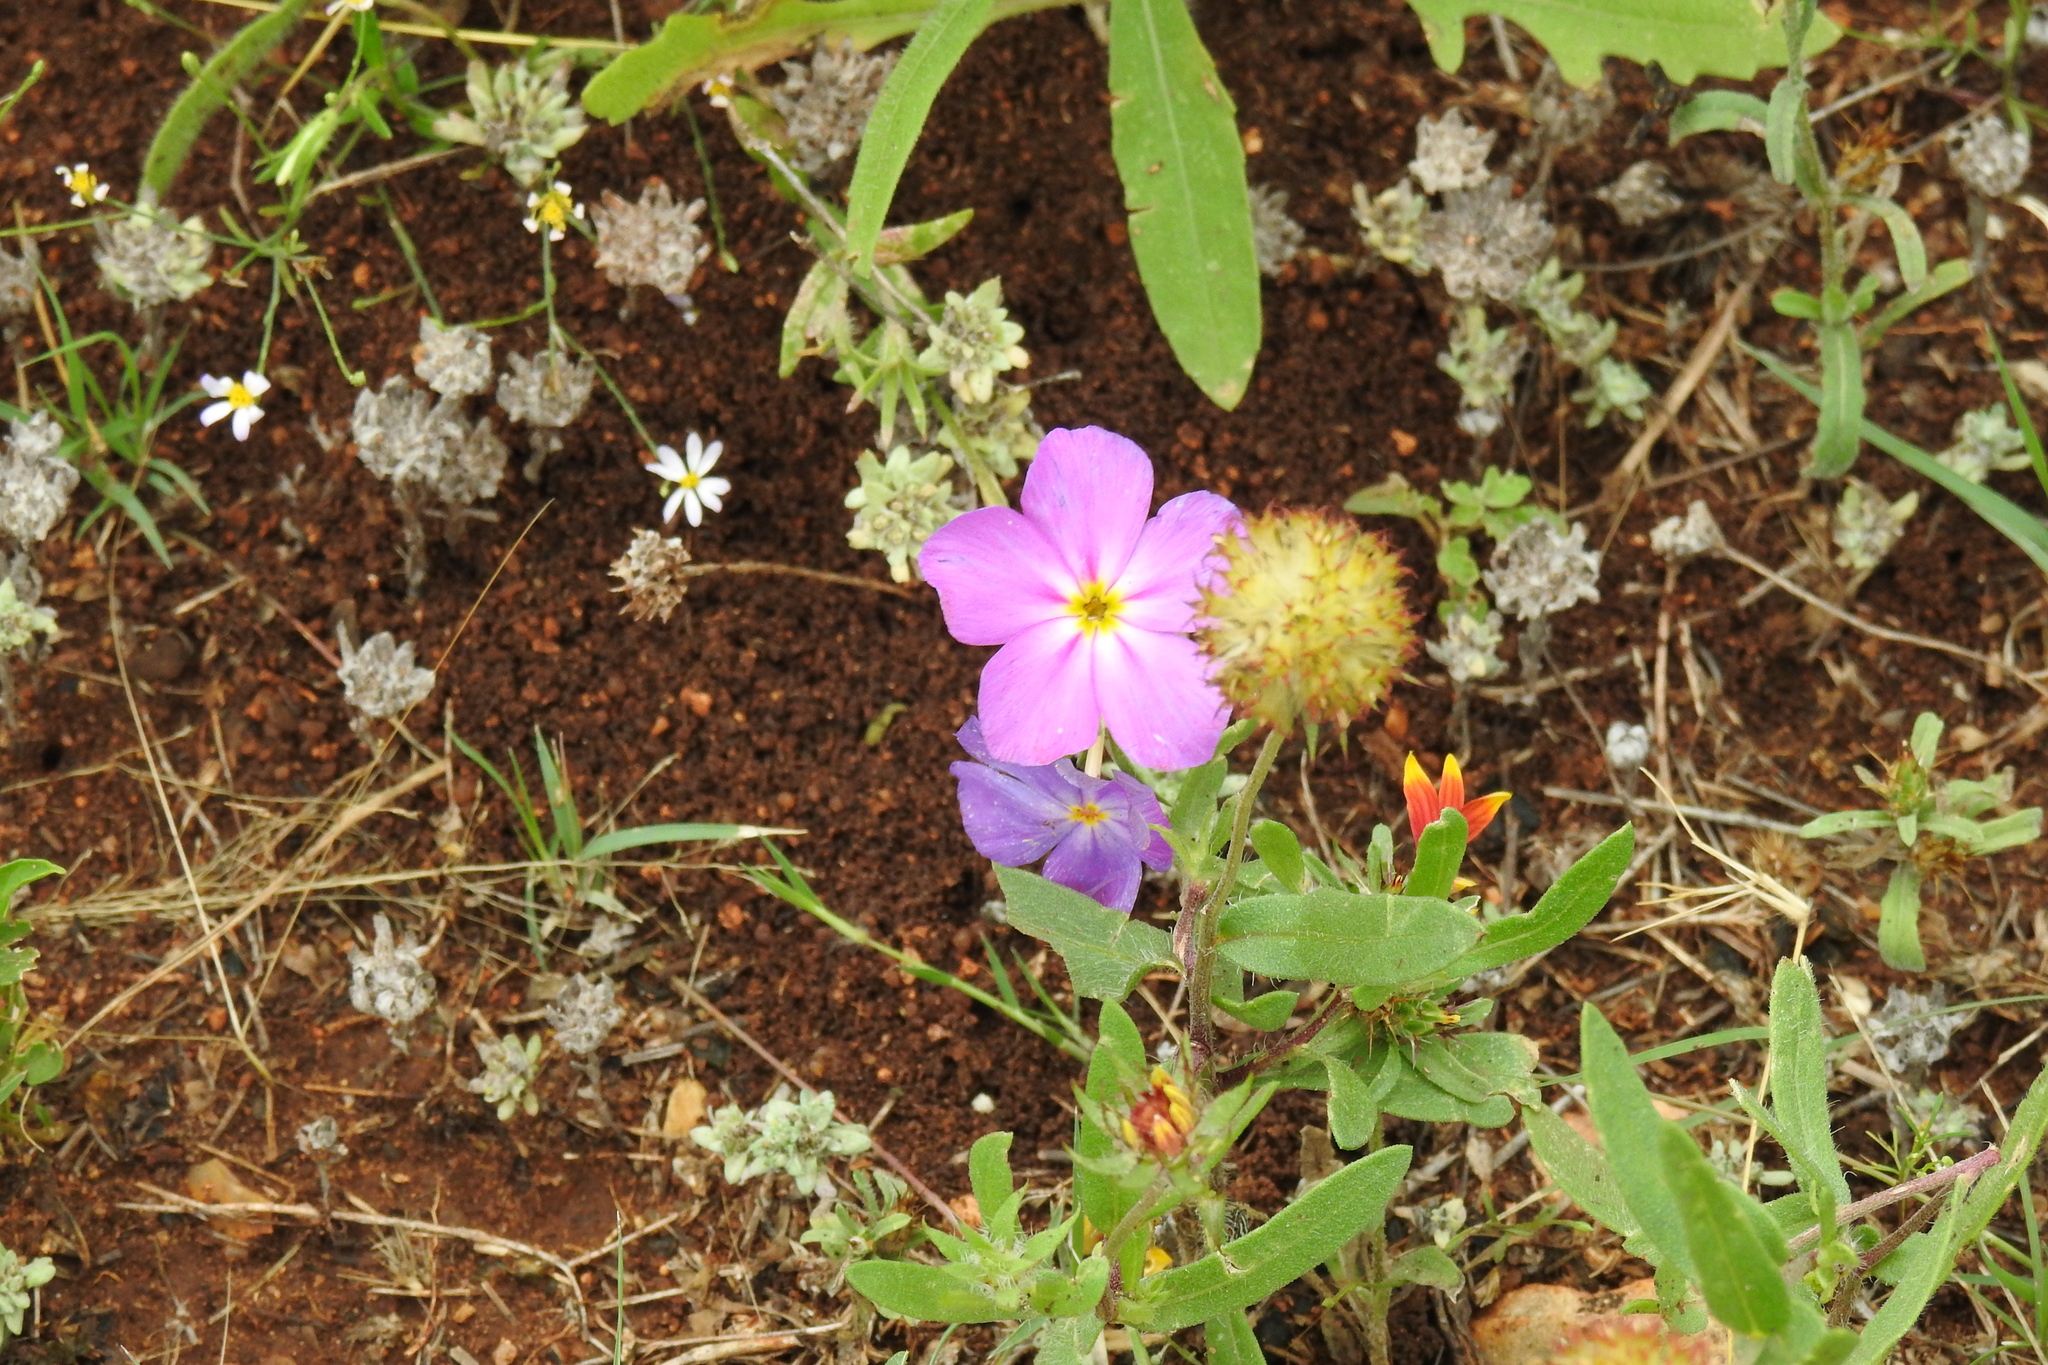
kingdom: Plantae
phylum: Tracheophyta
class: Magnoliopsida
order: Ericales
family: Polemoniaceae
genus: Phlox
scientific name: Phlox roemeriana
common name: Roemer's phlox
